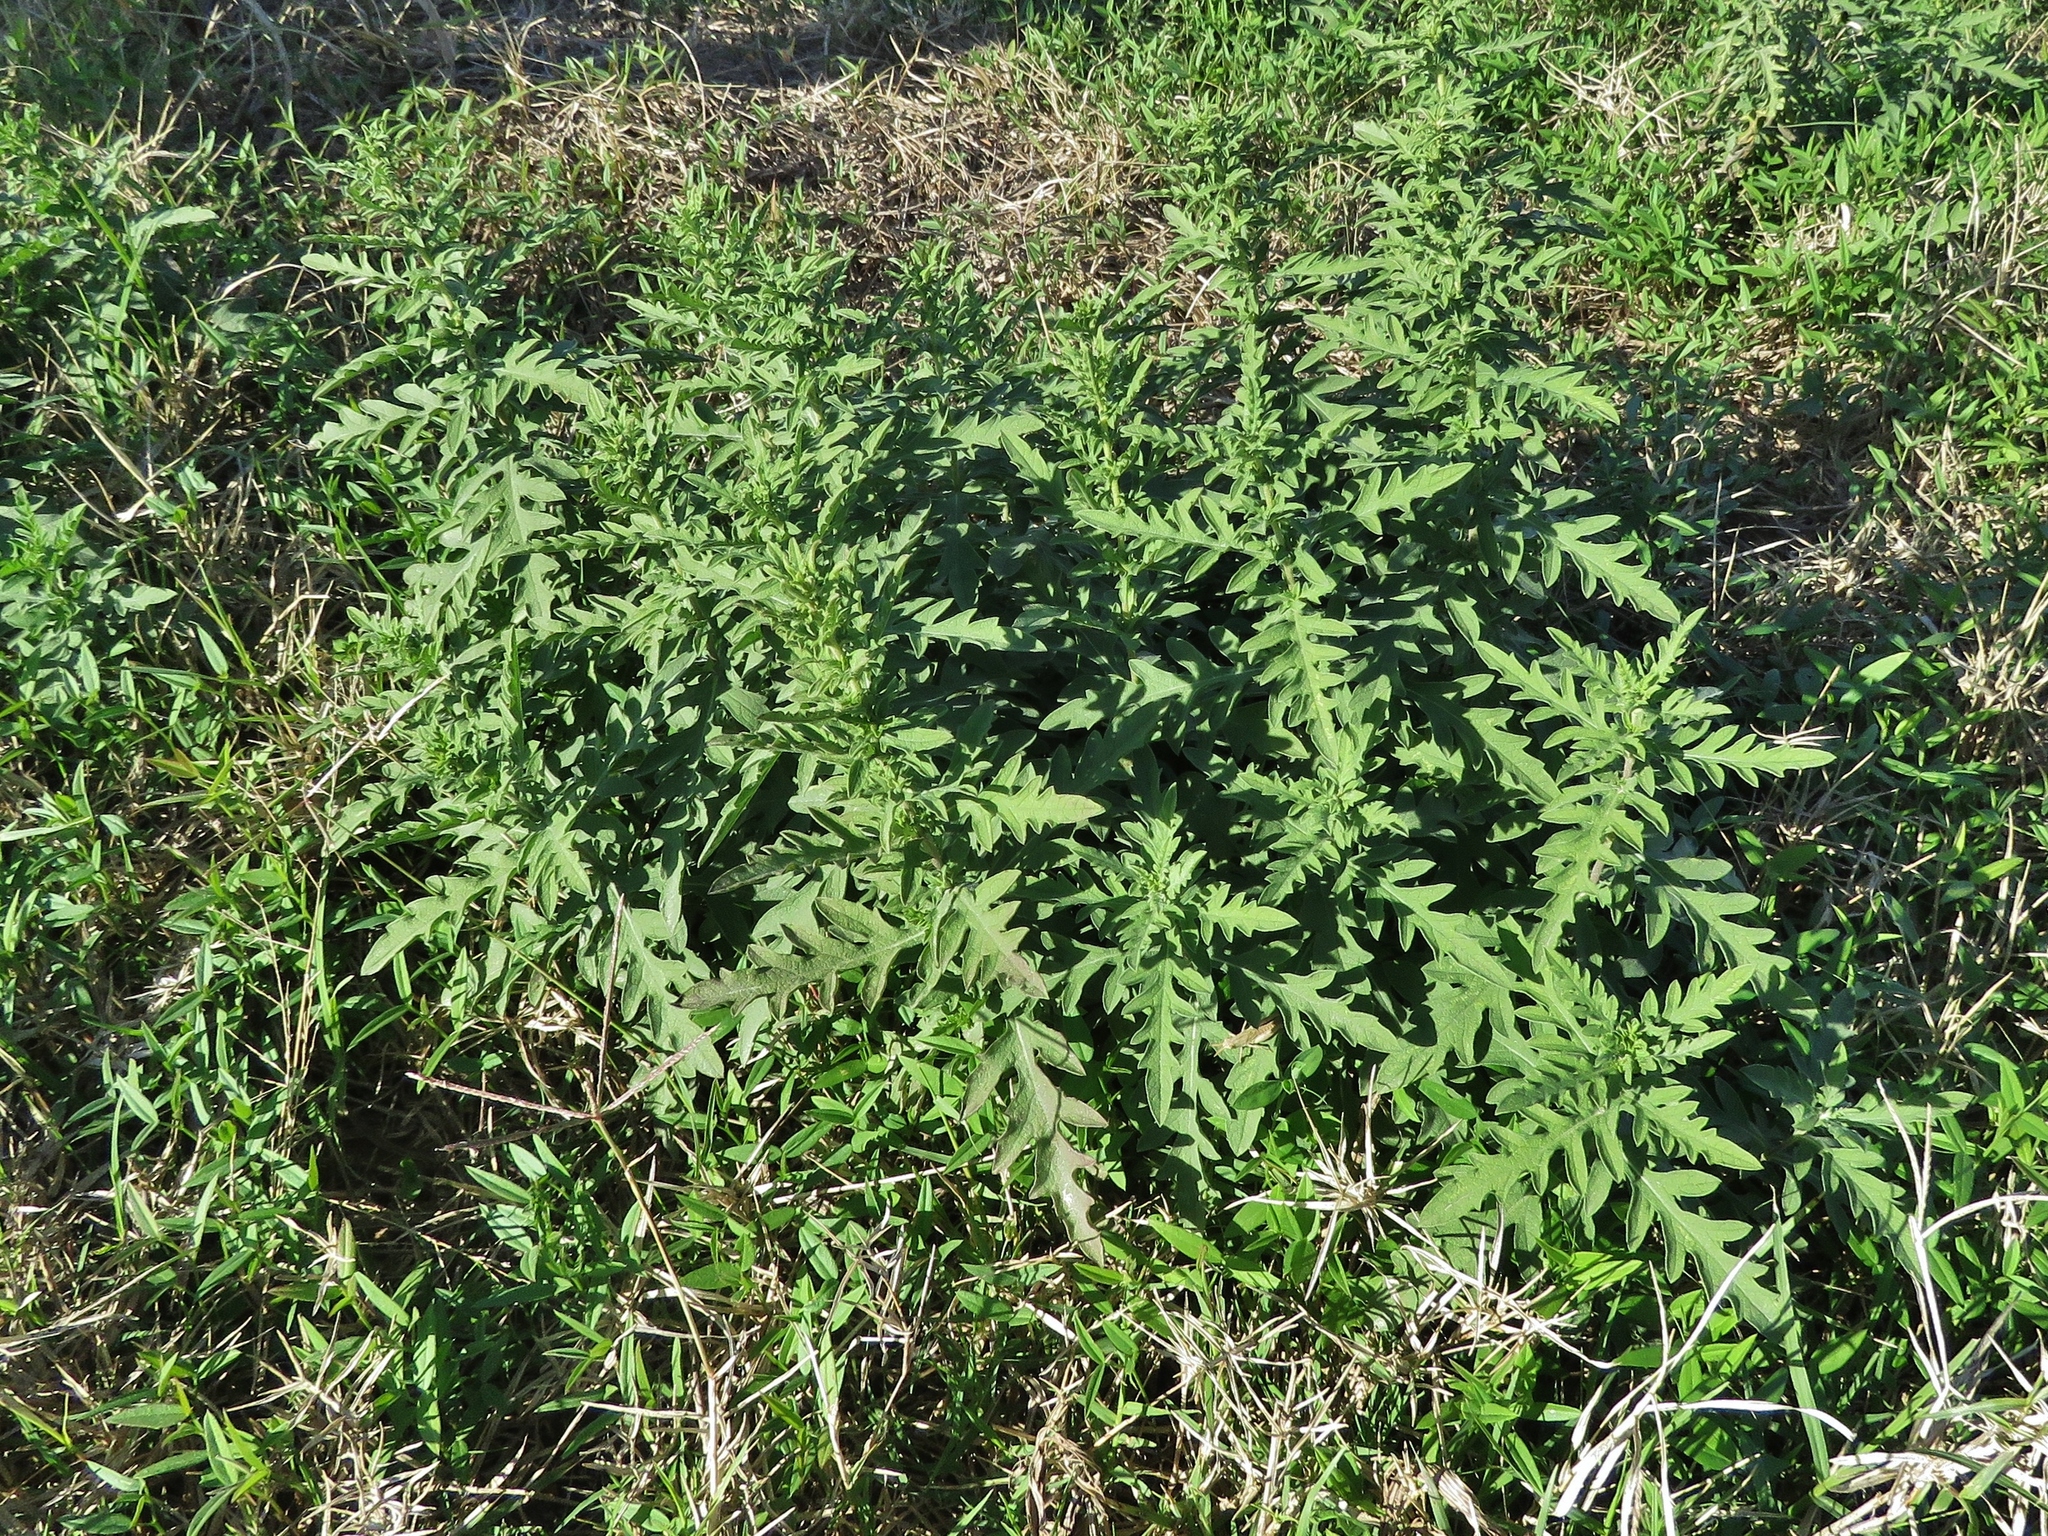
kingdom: Plantae
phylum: Tracheophyta
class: Magnoliopsida
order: Asterales
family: Asteraceae
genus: Ambrosia
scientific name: Ambrosia psilostachya
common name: Perennial ragweed
